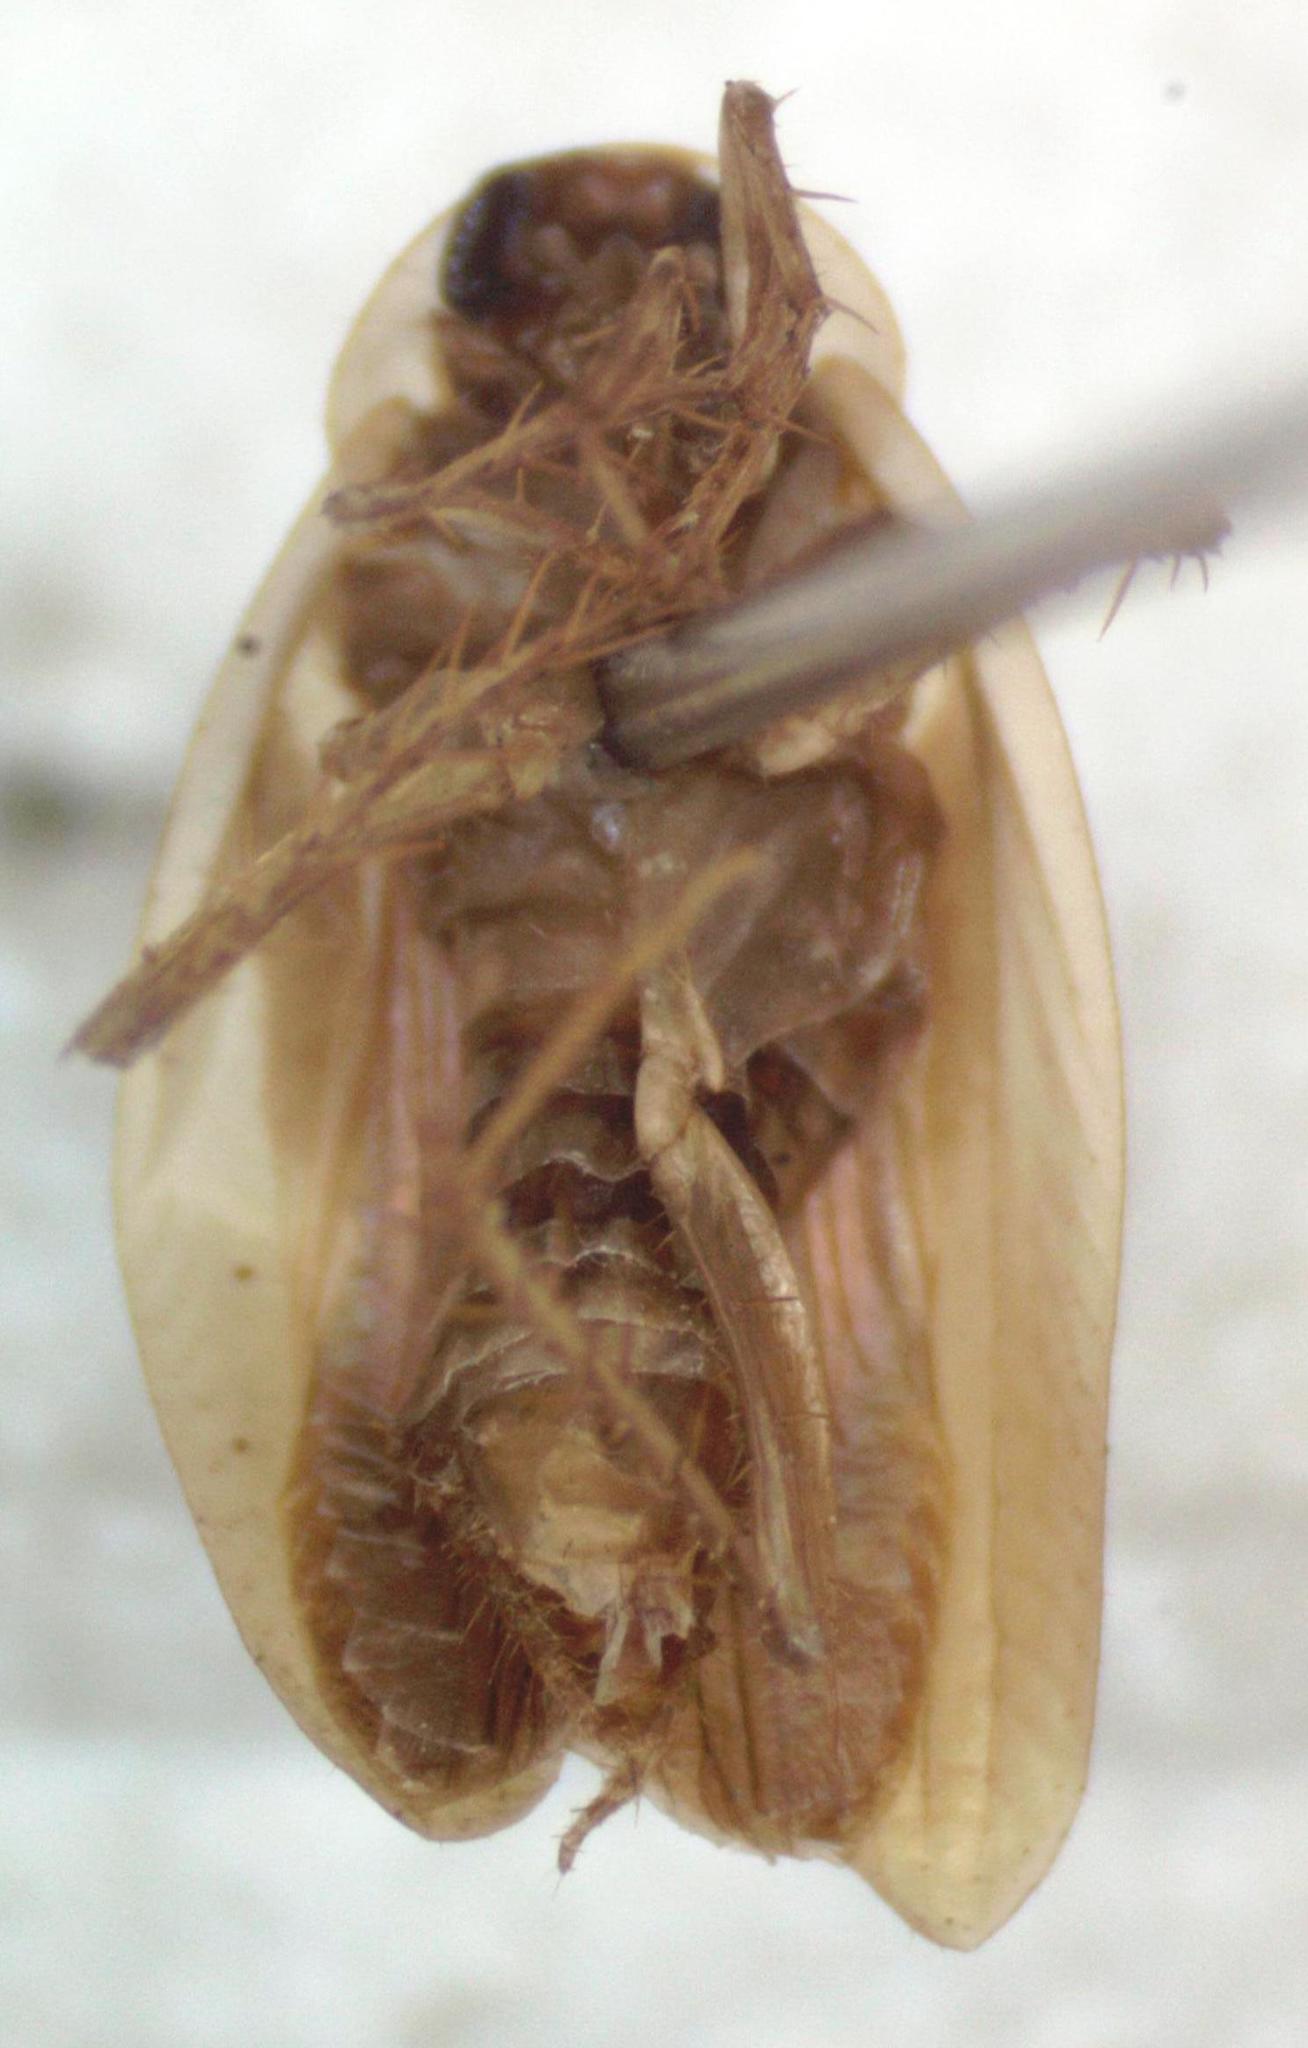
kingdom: Animalia
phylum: Arthropoda
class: Insecta
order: Blattodea
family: Anaplectidae
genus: Anaplecta
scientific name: Anaplecta hemiscotia
